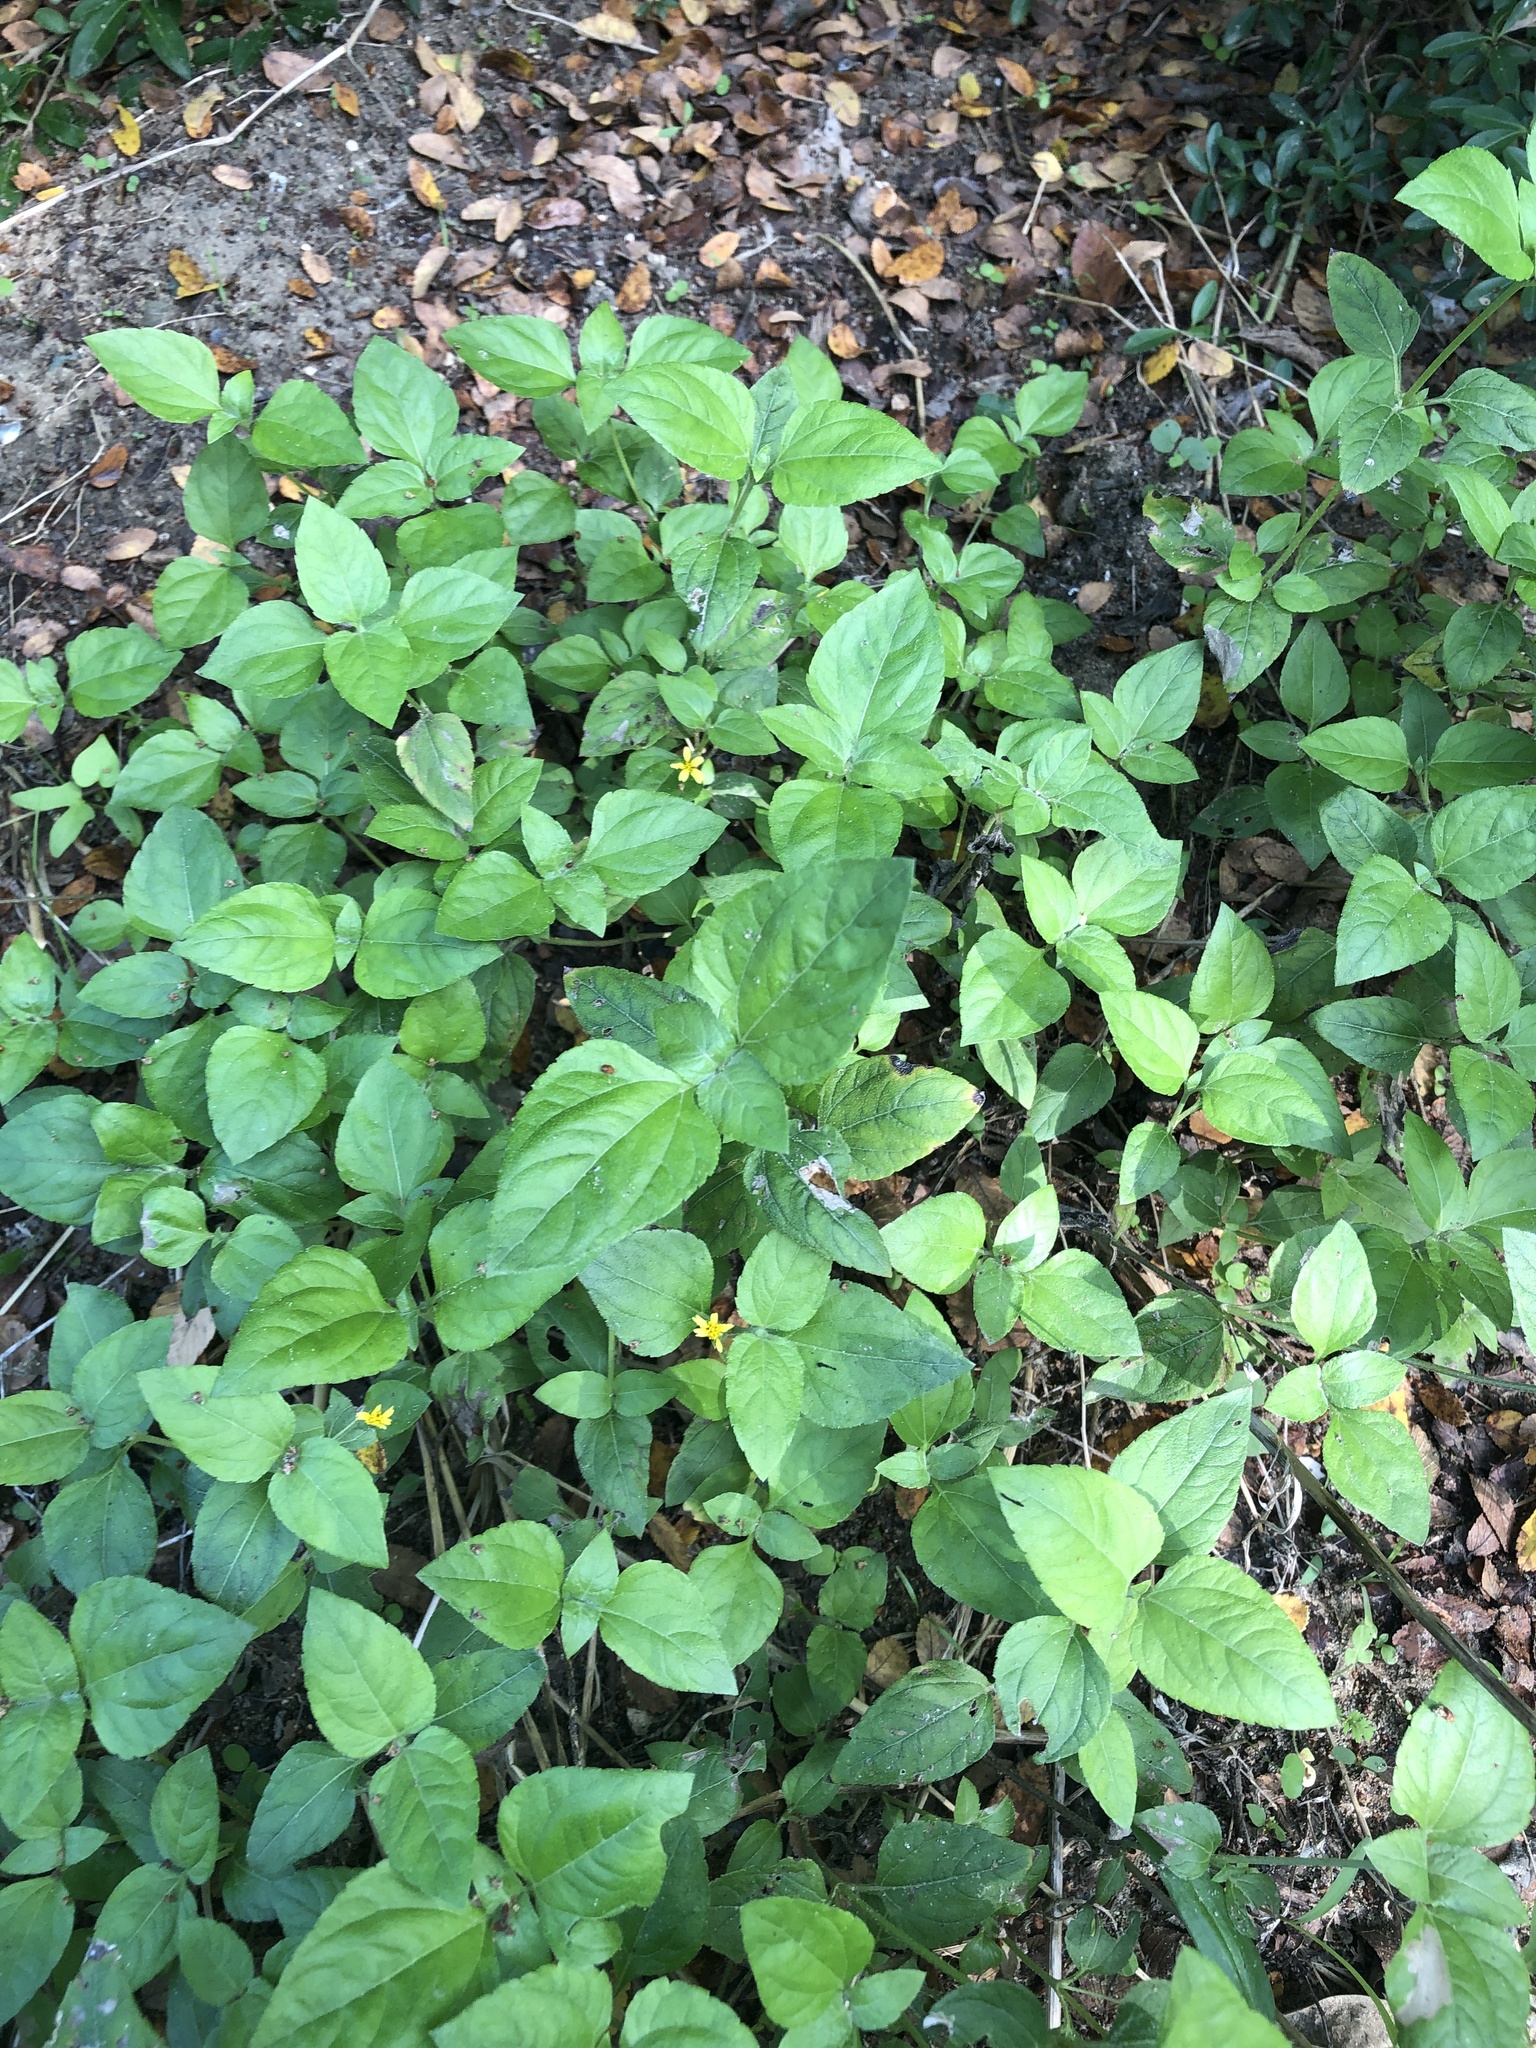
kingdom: Plantae
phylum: Tracheophyta
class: Magnoliopsida
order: Asterales
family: Asteraceae
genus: Calyptocarpus
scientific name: Calyptocarpus vialis
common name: Straggler daisy
